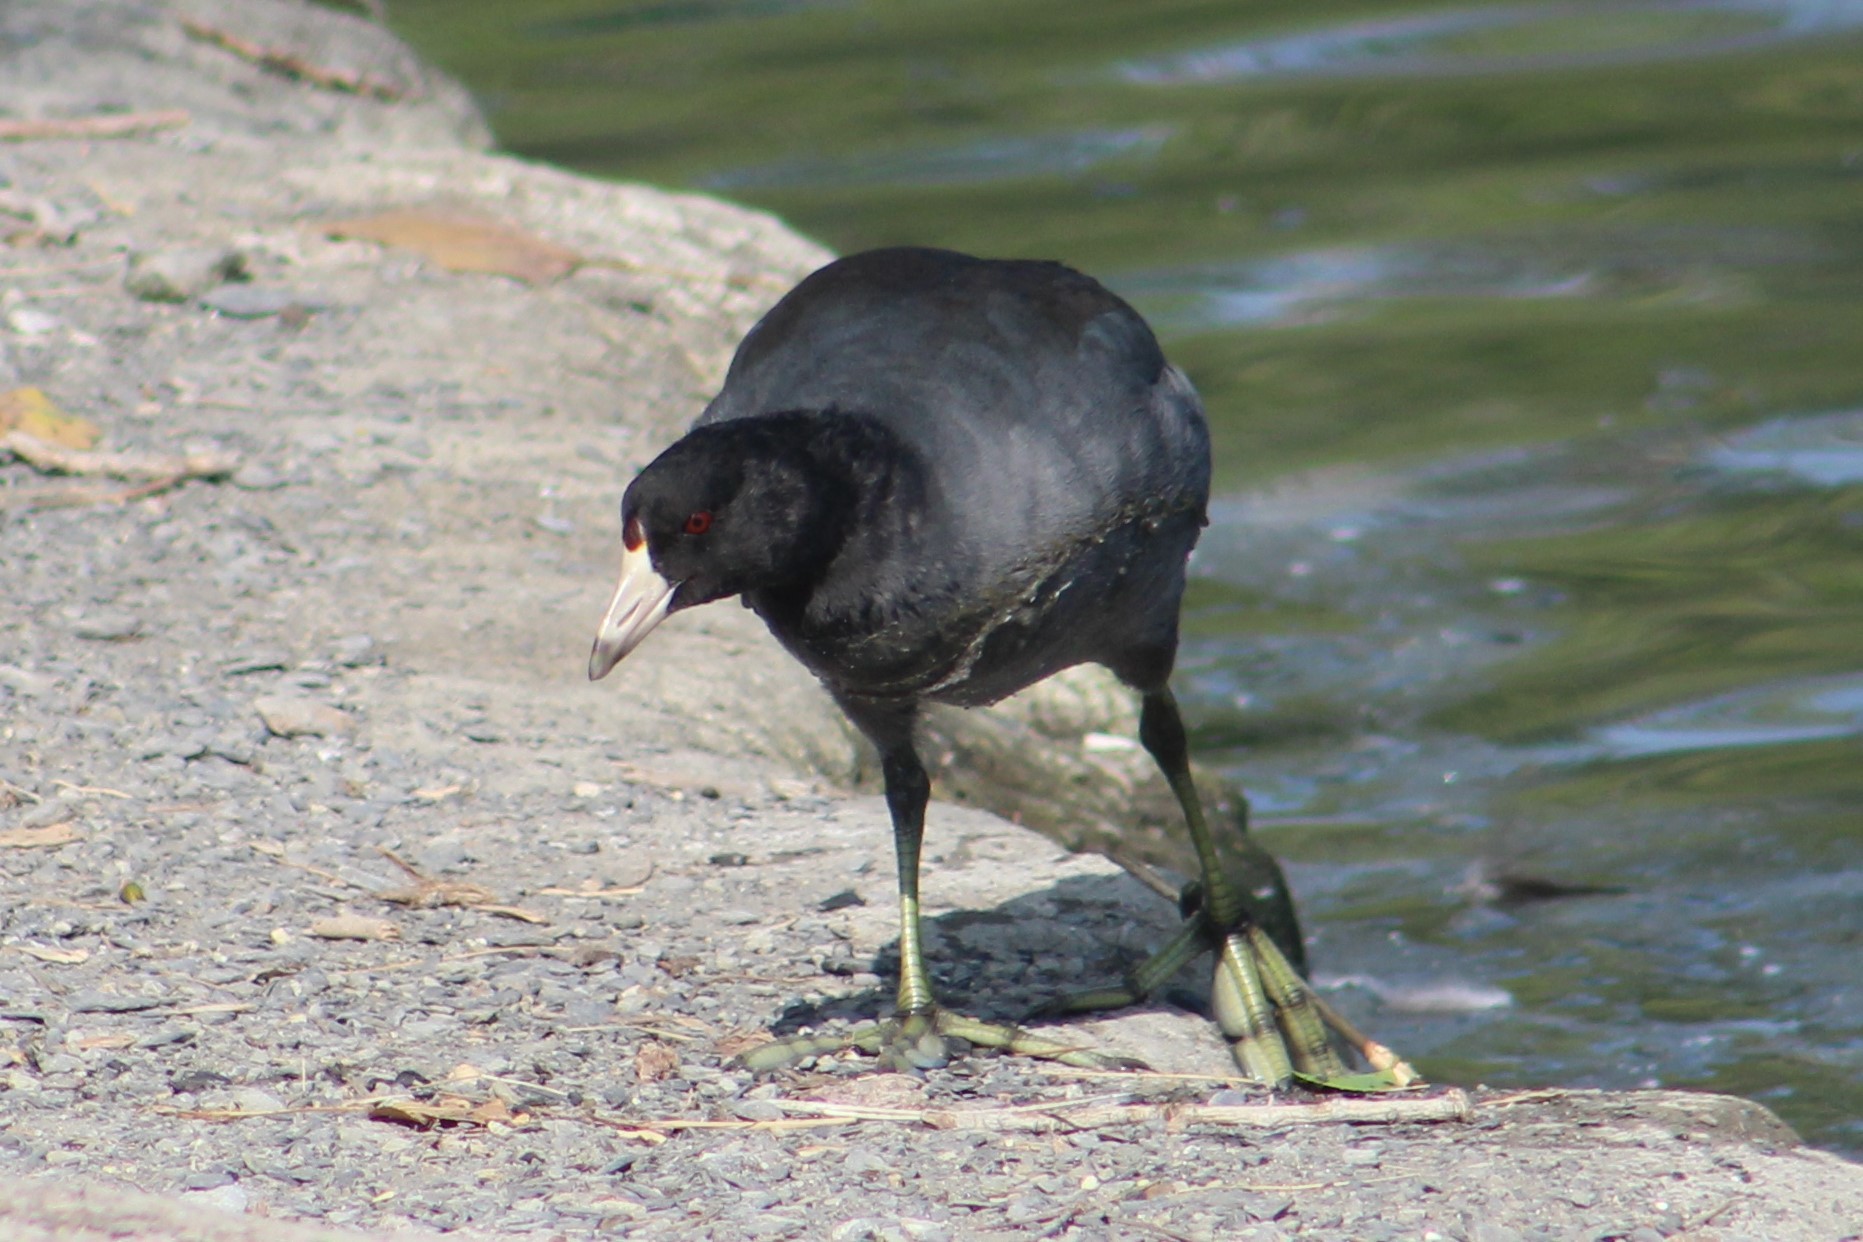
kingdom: Animalia
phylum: Chordata
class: Aves
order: Gruiformes
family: Rallidae
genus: Fulica
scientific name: Fulica americana
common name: American coot
